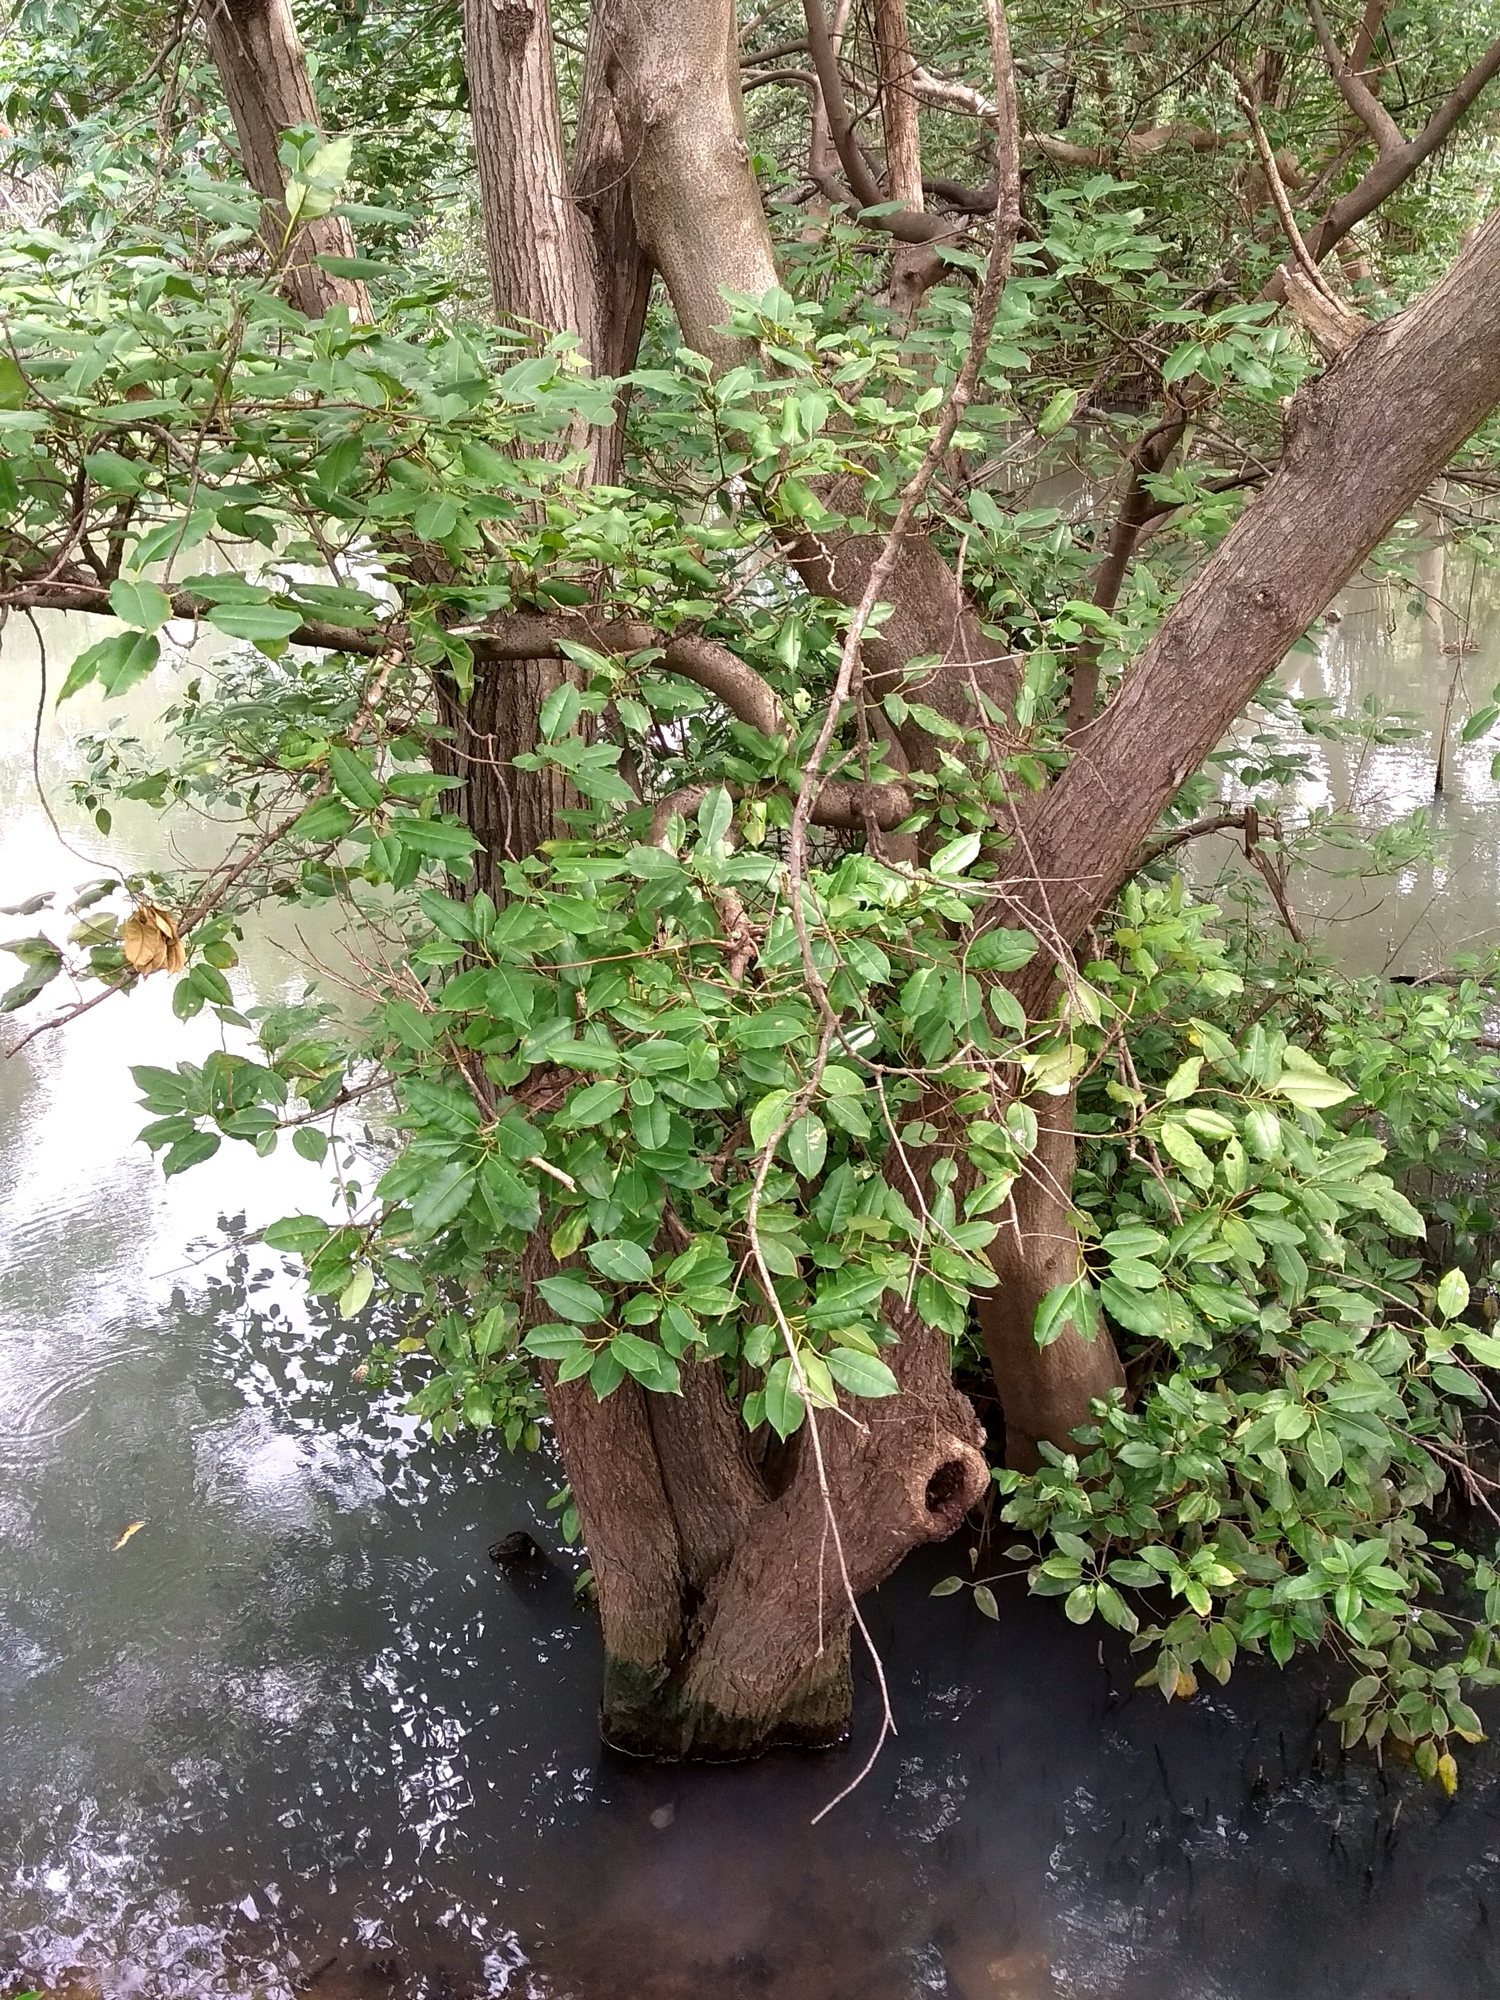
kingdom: Plantae
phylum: Tracheophyta
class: Magnoliopsida
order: Malpighiales
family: Euphorbiaceae
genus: Excoecaria
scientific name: Excoecaria agallocha
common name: River poisontree
